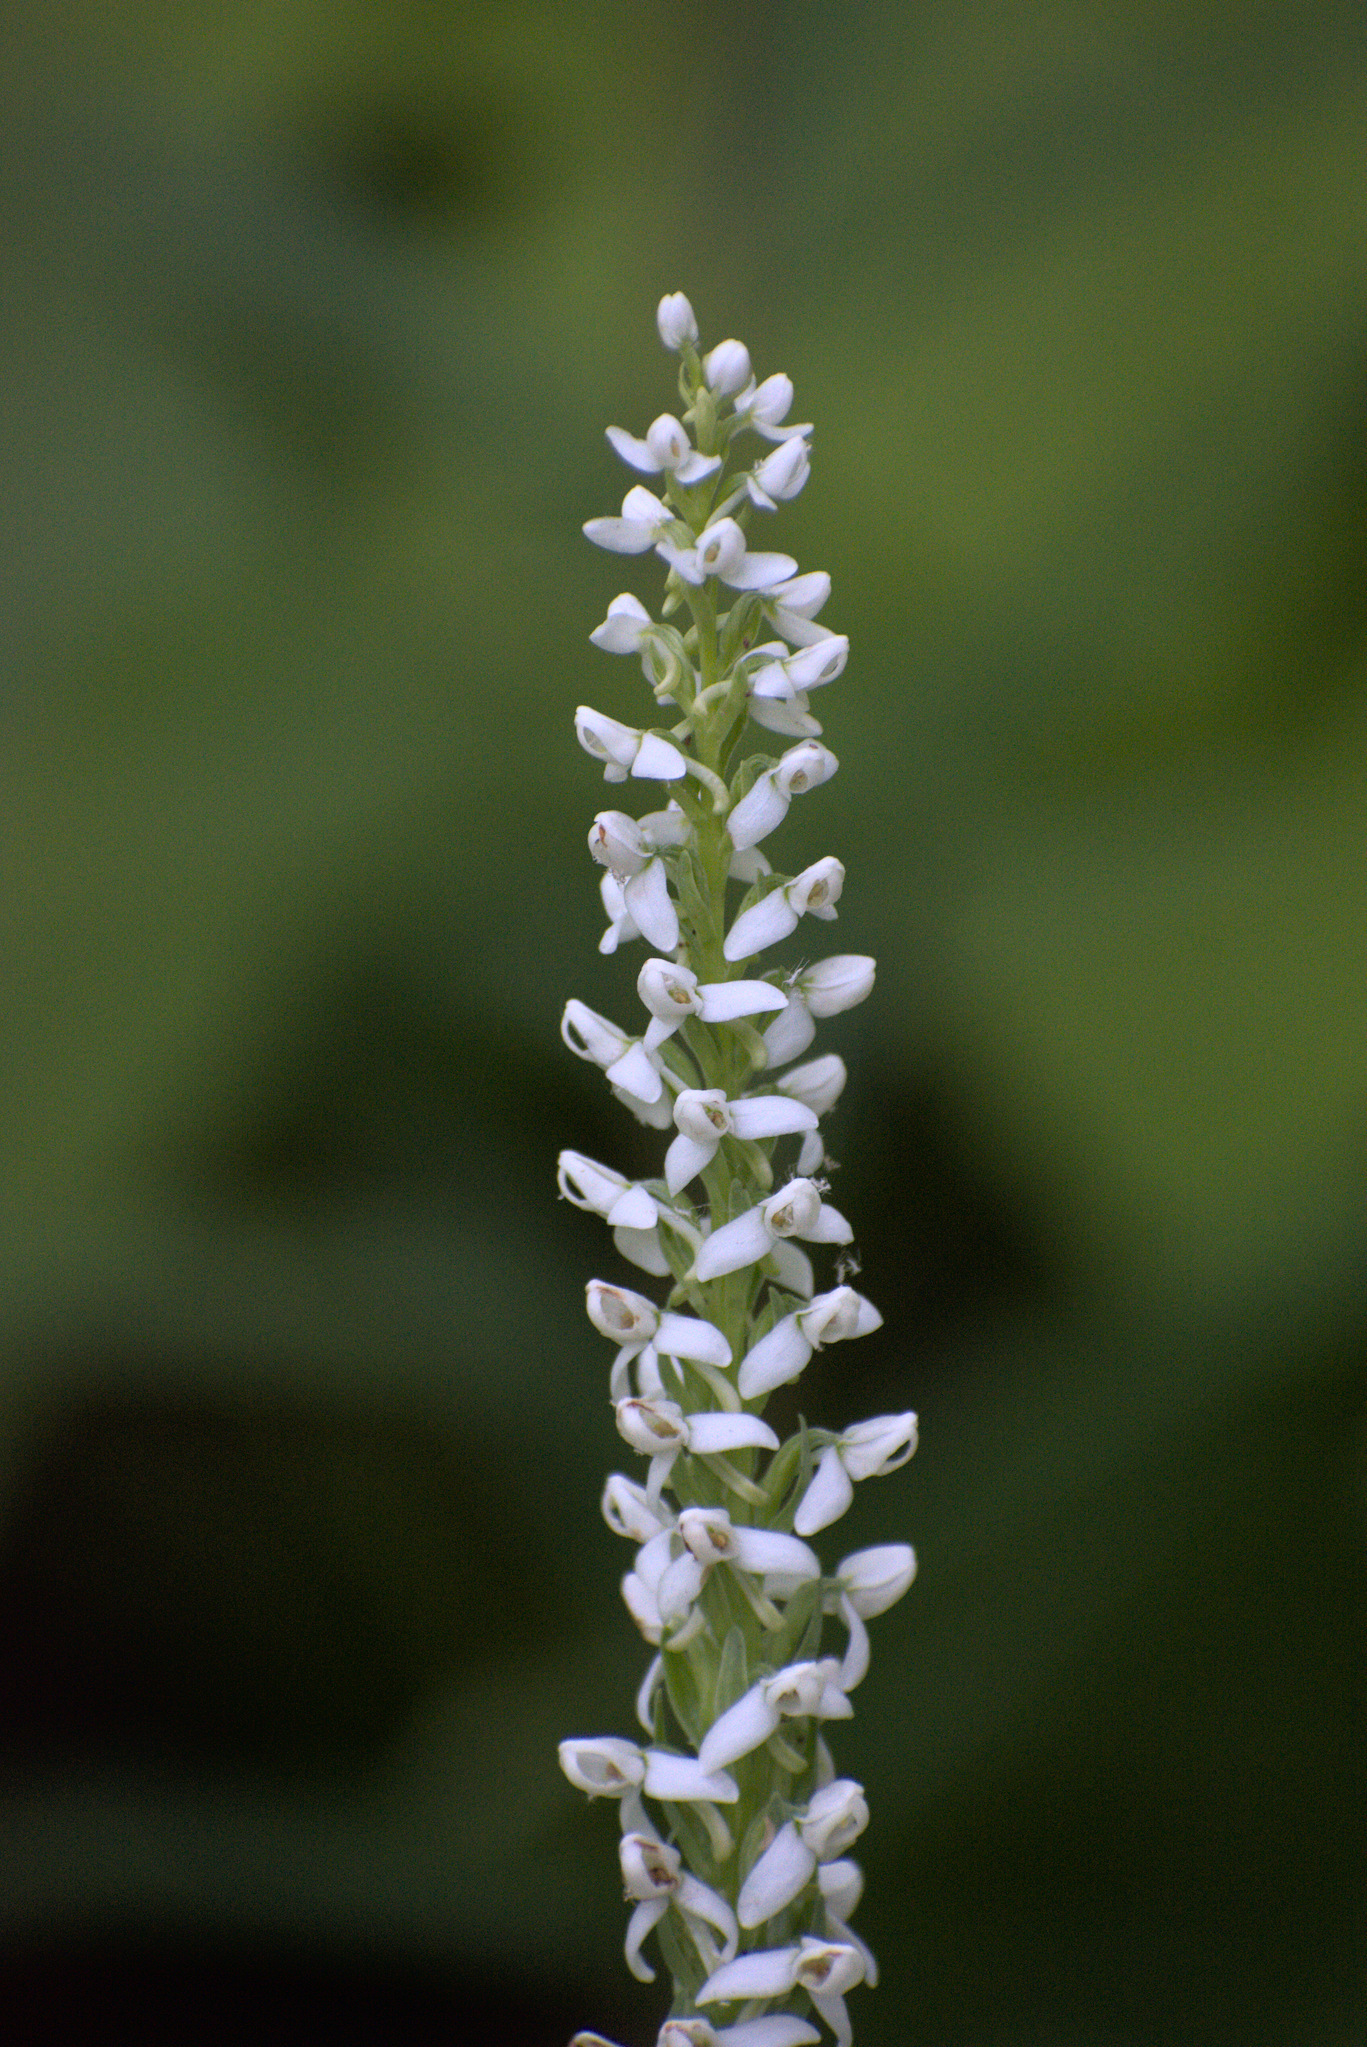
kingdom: Plantae
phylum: Tracheophyta
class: Liliopsida
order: Asparagales
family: Orchidaceae
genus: Platanthera
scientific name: Platanthera dilatata
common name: Bog candles
